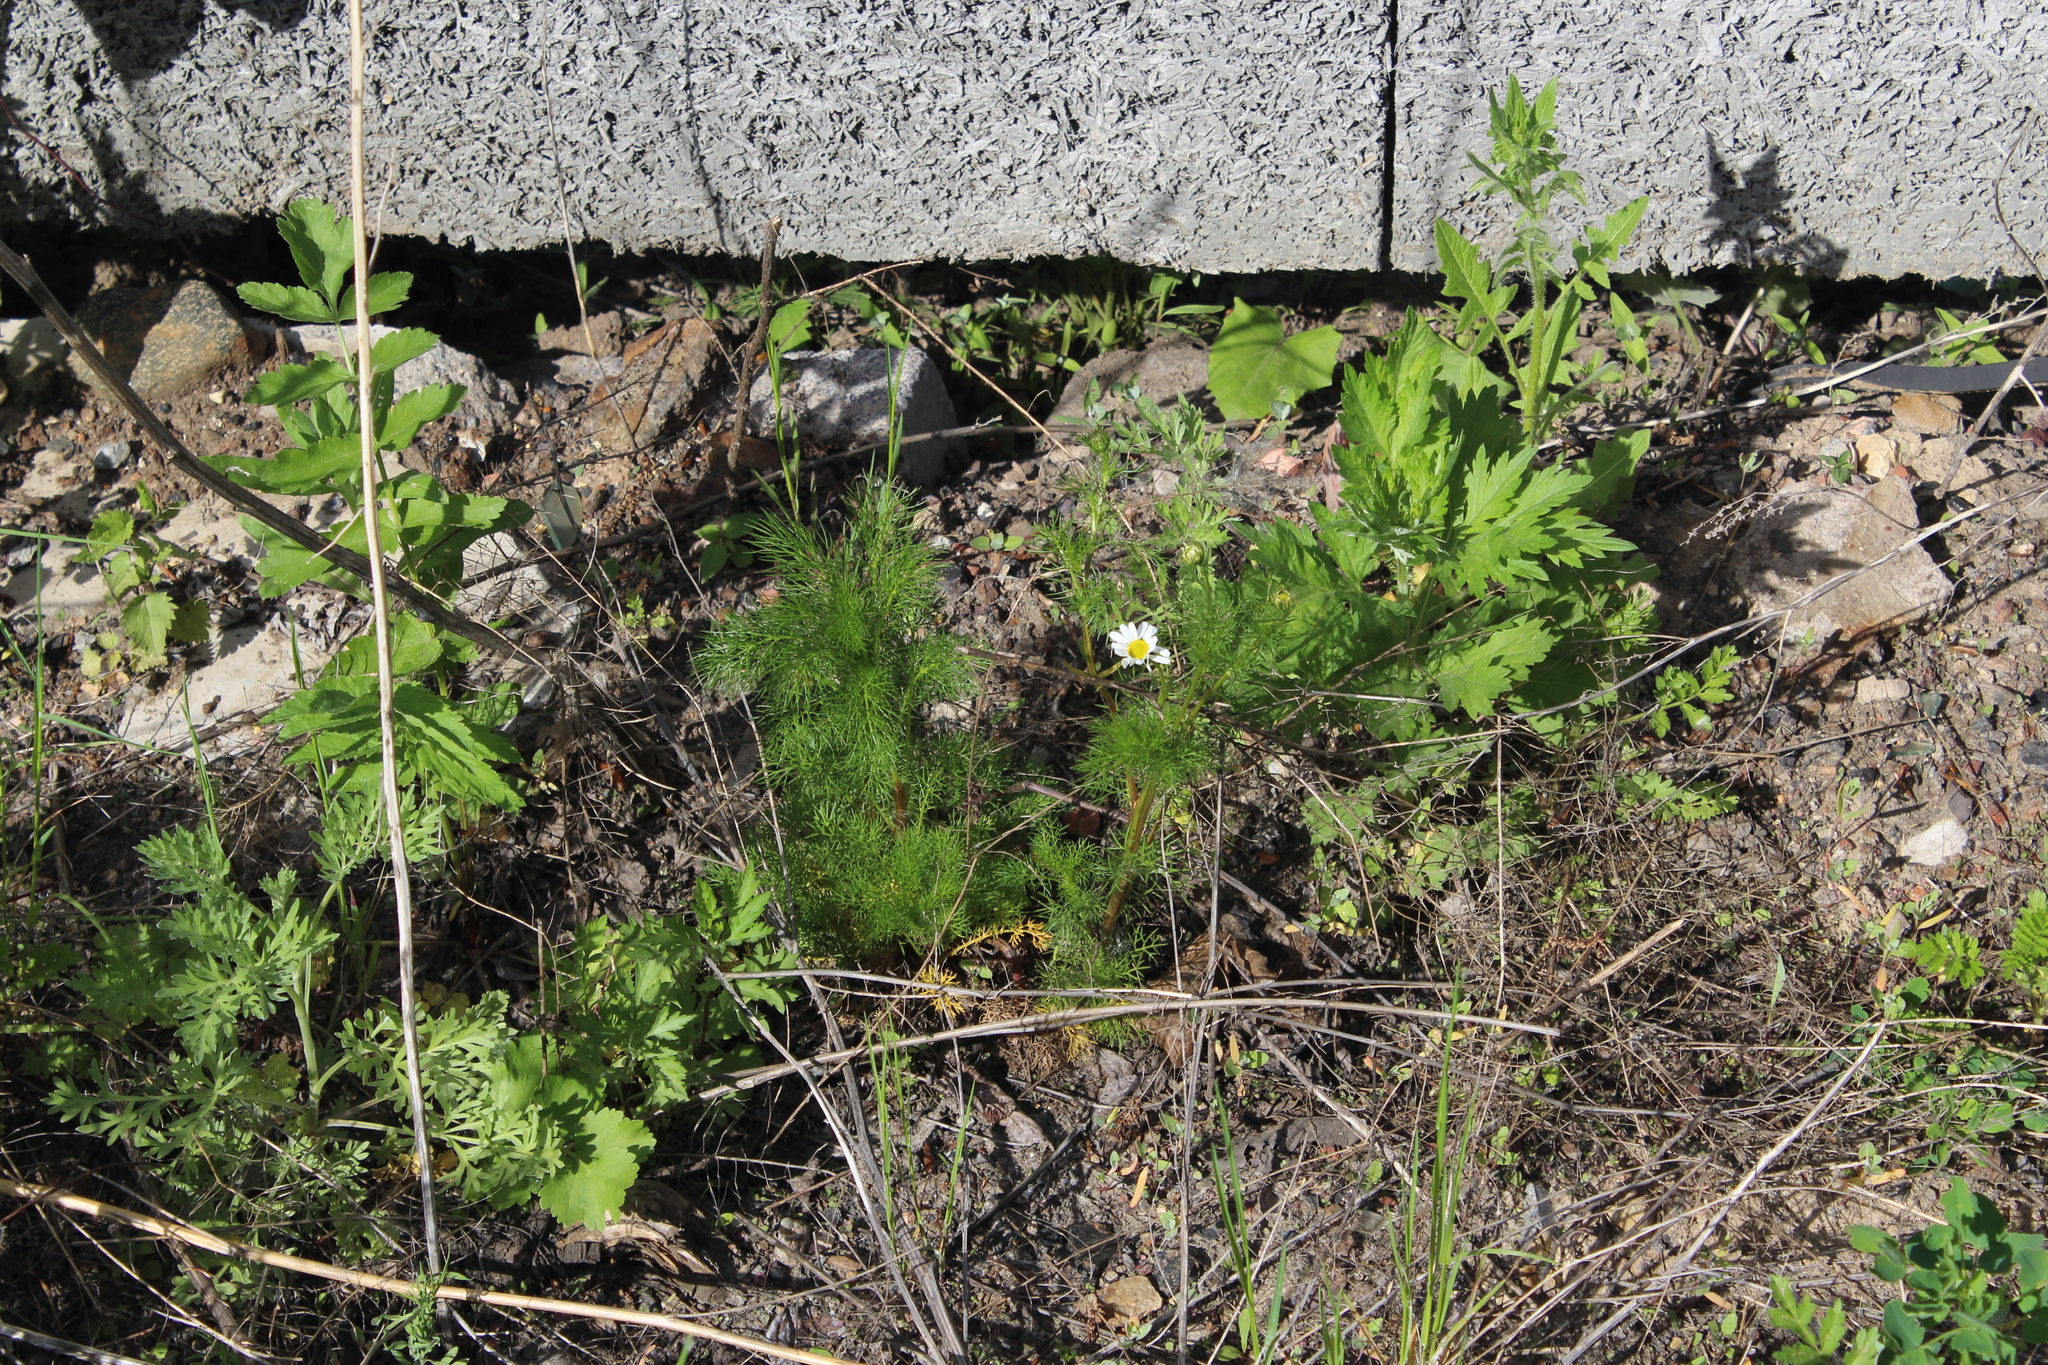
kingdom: Plantae
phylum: Tracheophyta
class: Magnoliopsida
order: Asterales
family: Asteraceae
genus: Tripleurospermum
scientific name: Tripleurospermum inodorum
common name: Scentless mayweed
